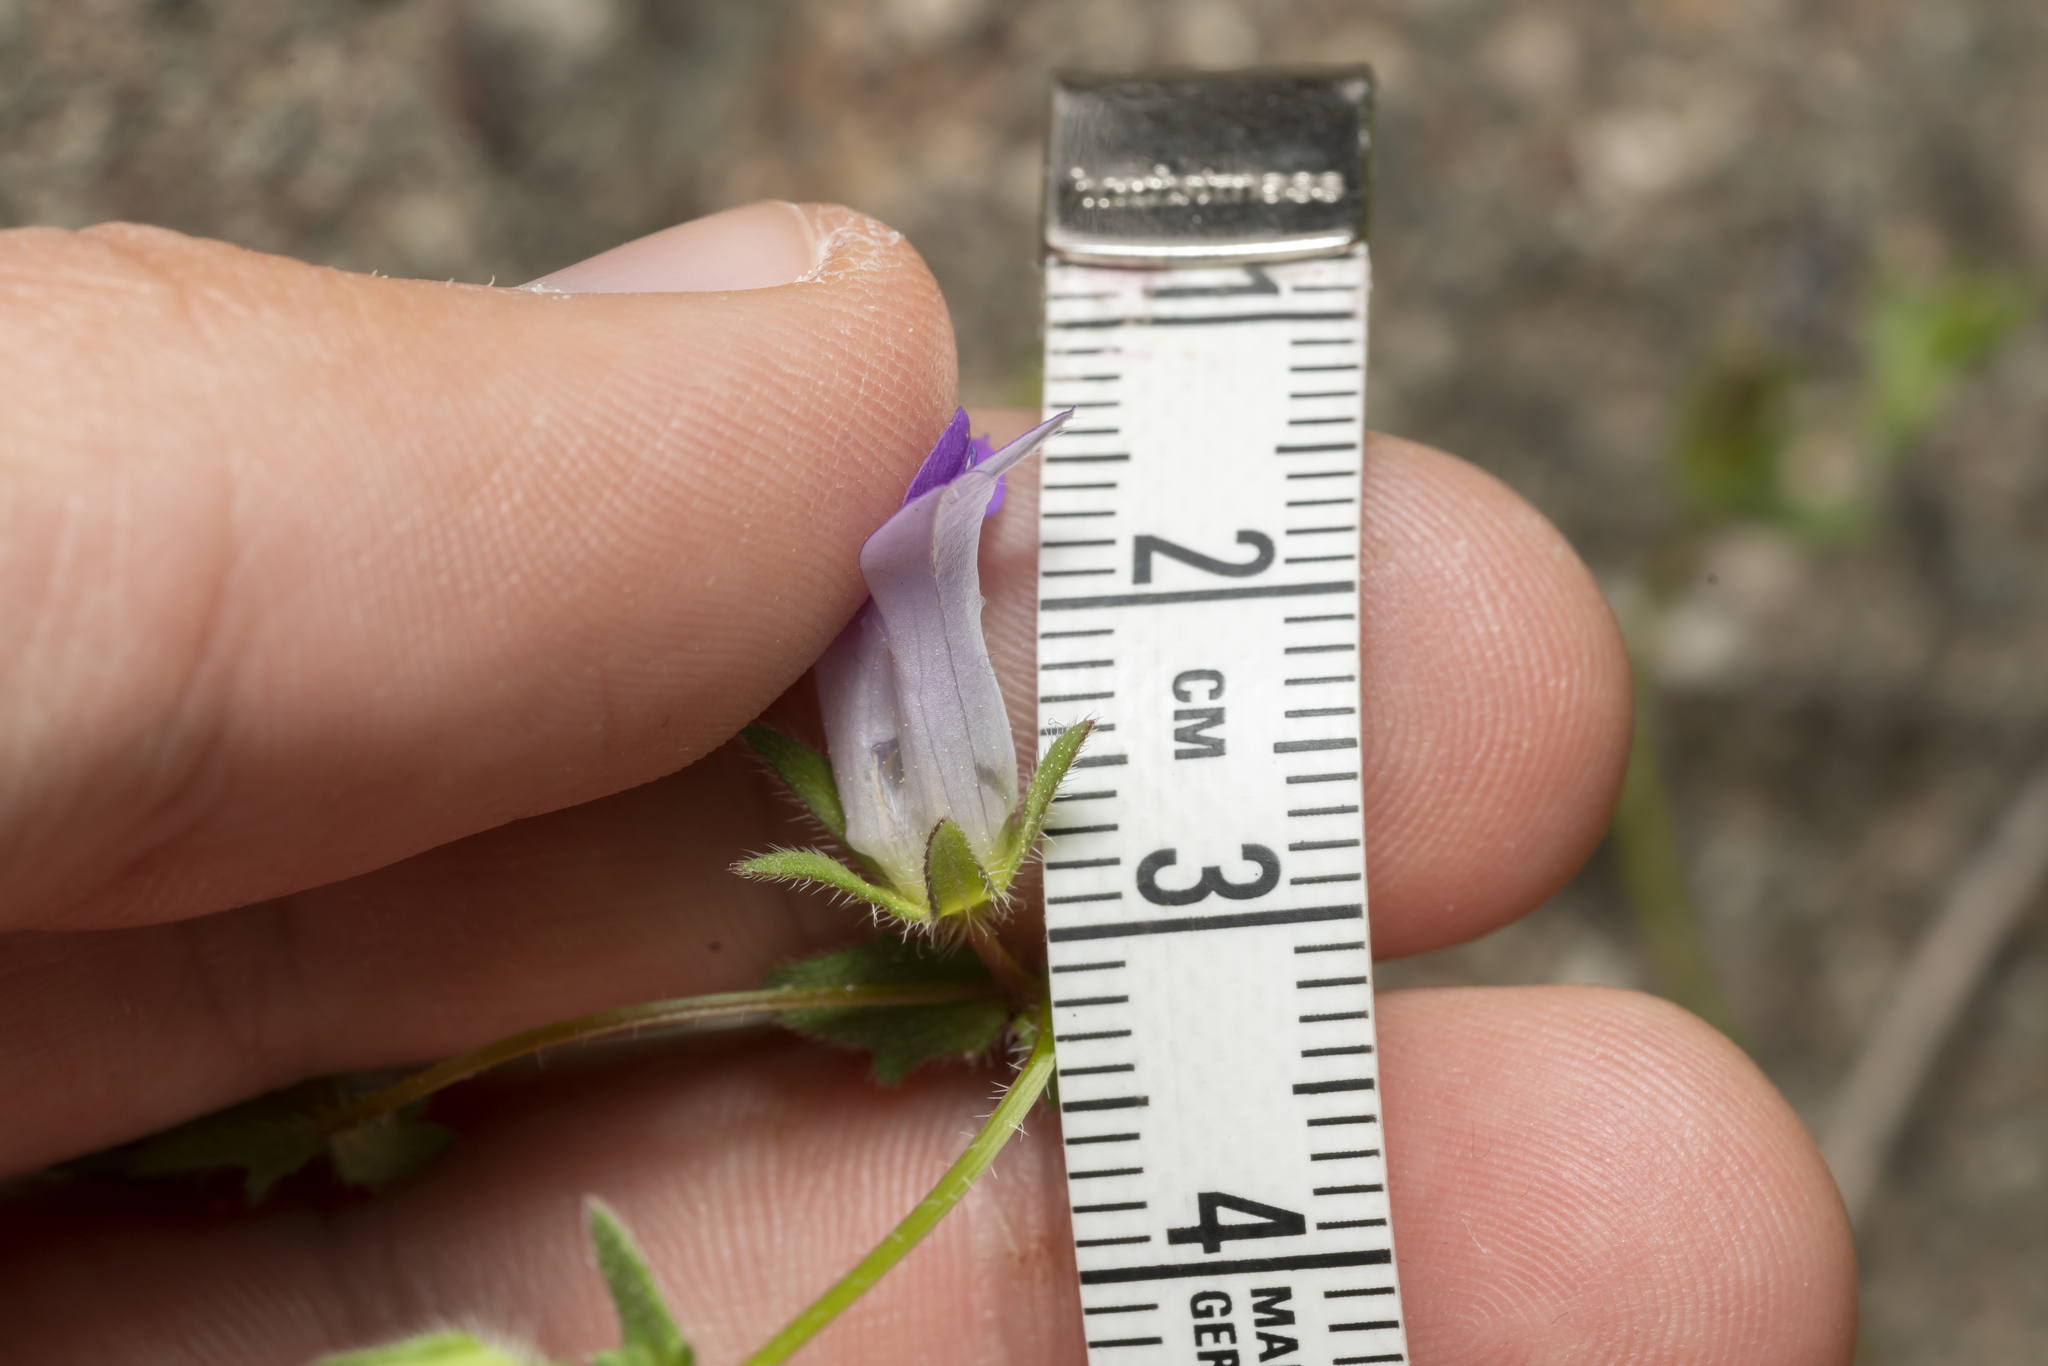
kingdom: Plantae
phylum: Tracheophyta
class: Magnoliopsida
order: Asterales
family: Campanulaceae
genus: Campanula
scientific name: Campanula rhodensis
